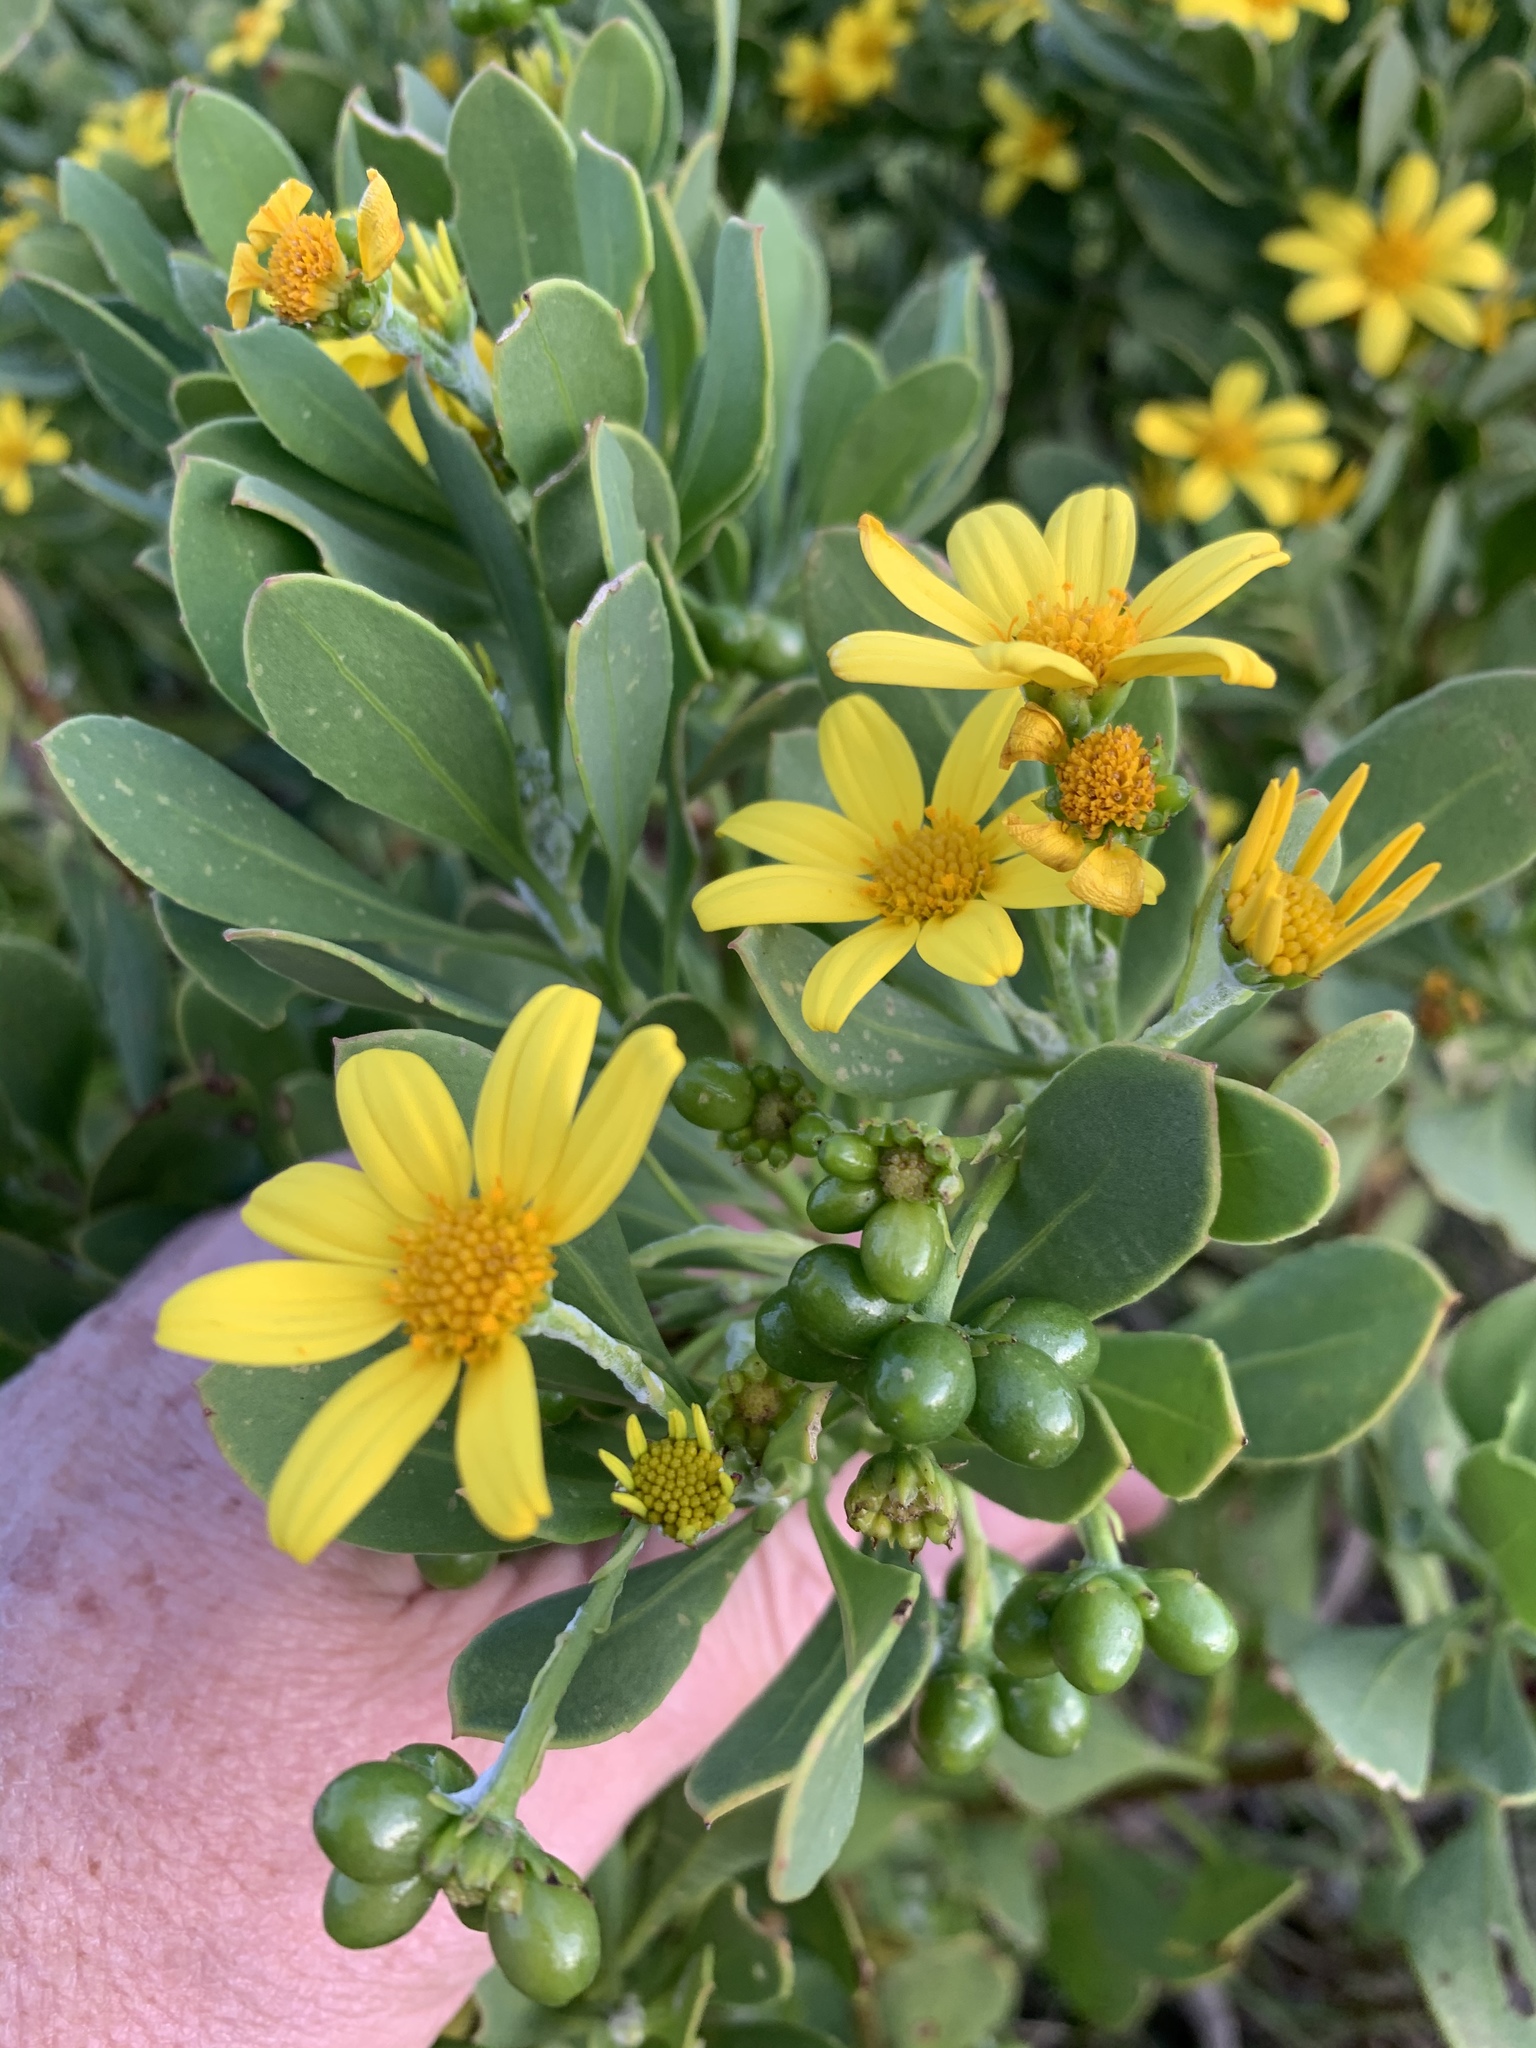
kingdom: Plantae
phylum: Tracheophyta
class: Magnoliopsida
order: Asterales
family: Asteraceae
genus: Osteospermum
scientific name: Osteospermum moniliferum
